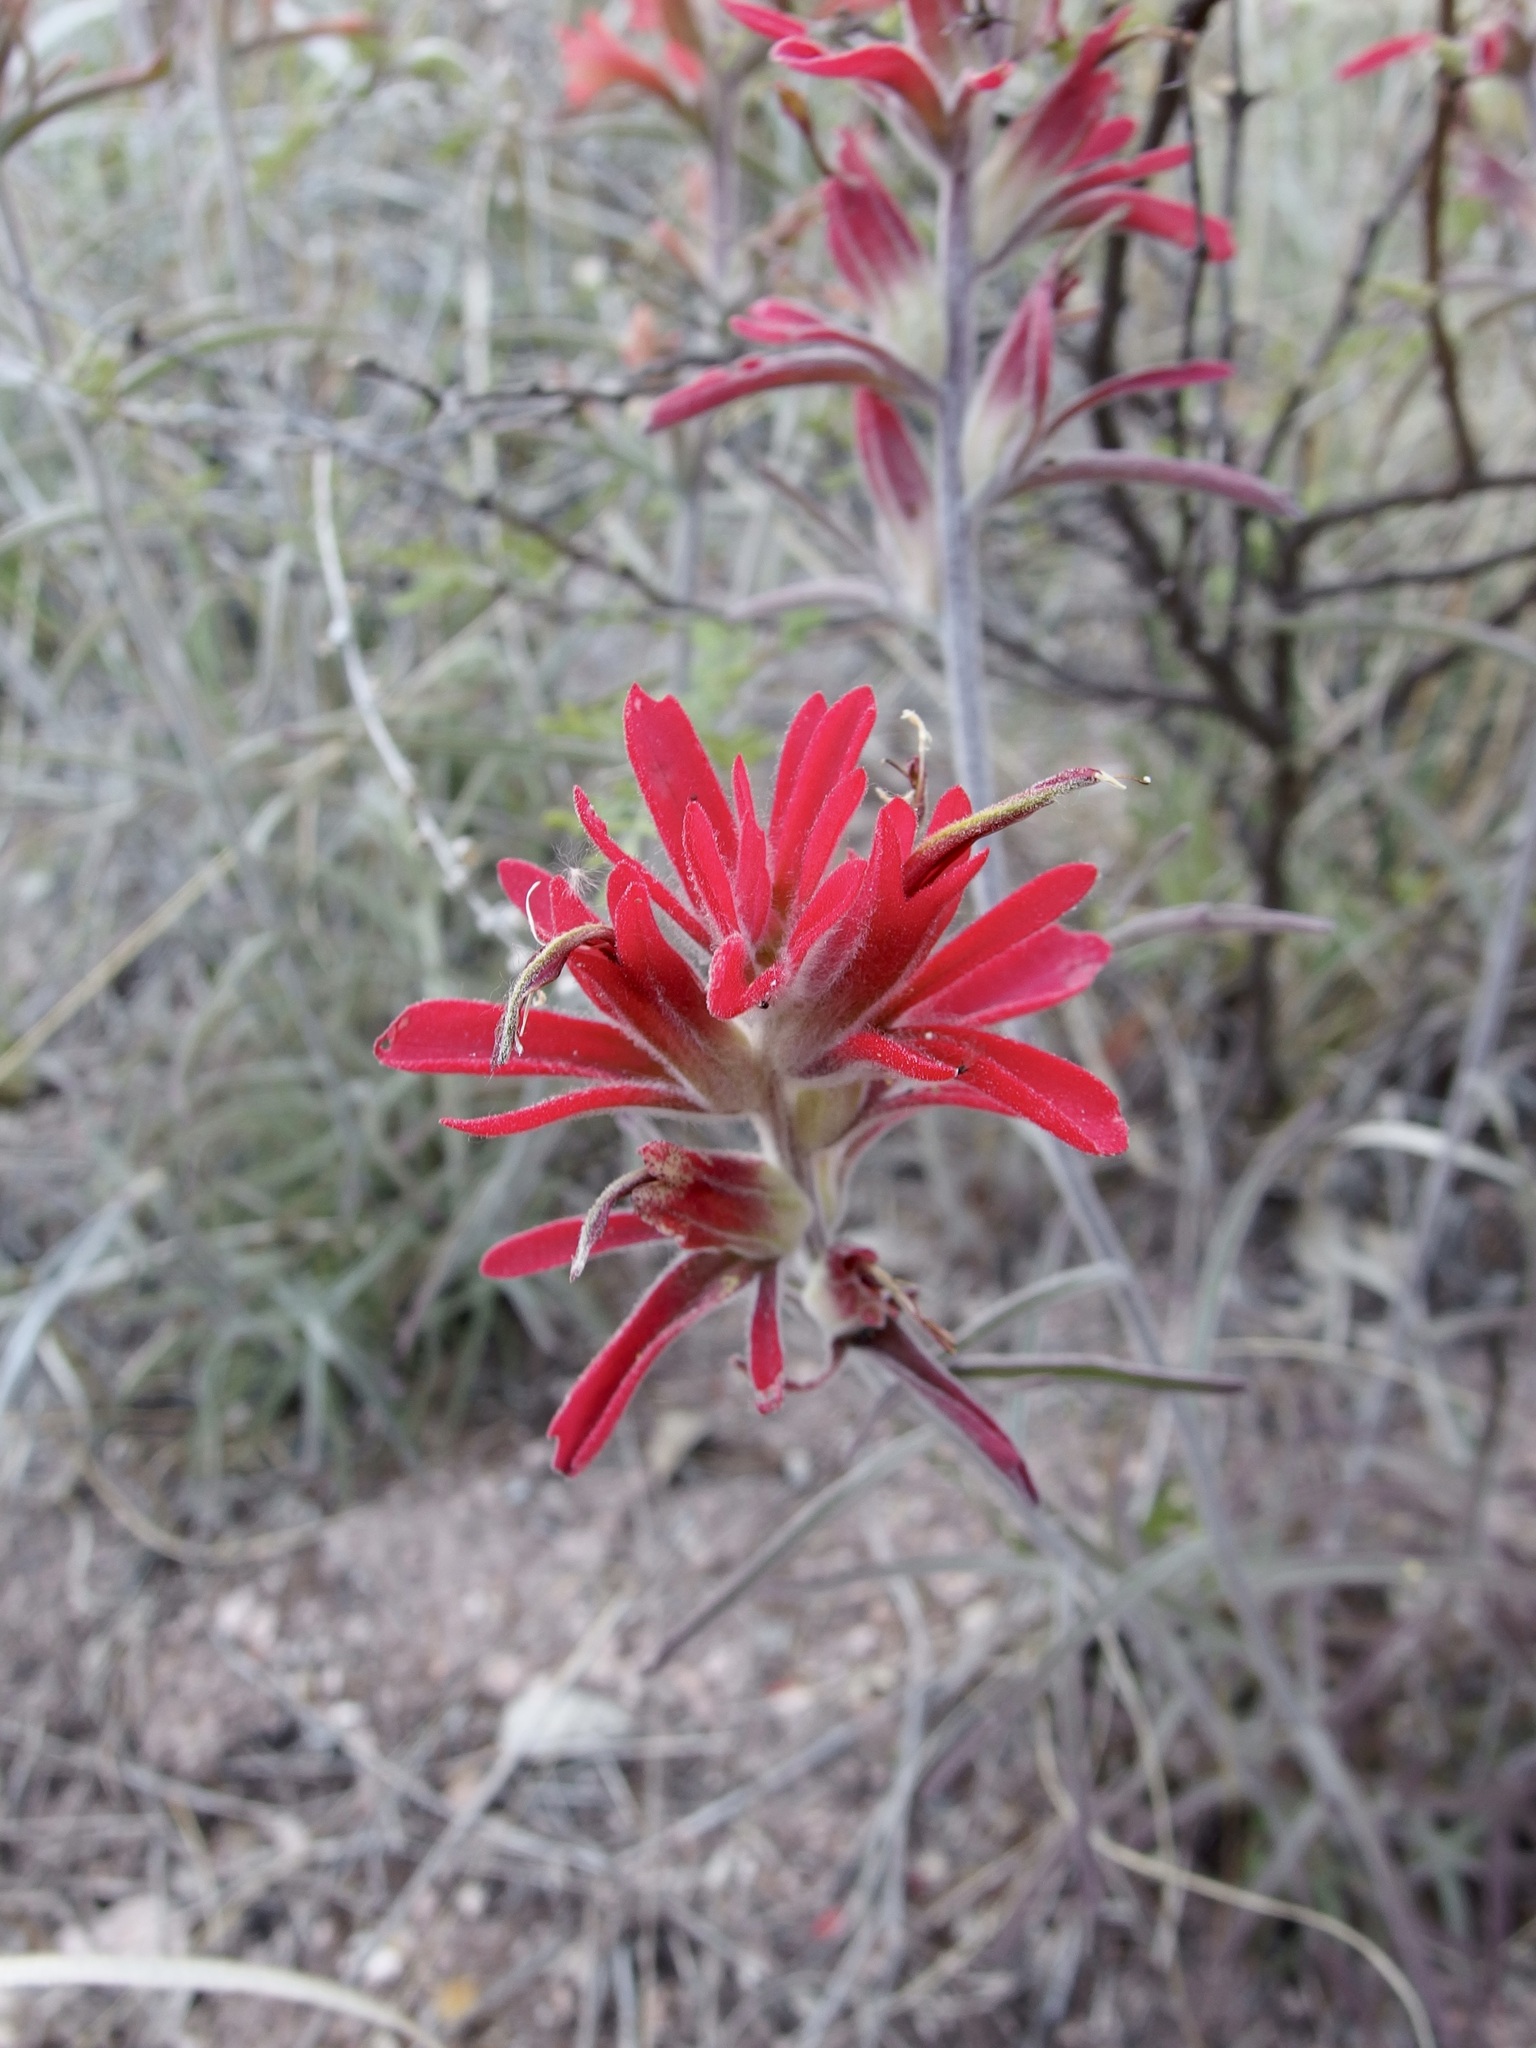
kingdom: Plantae
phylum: Tracheophyta
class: Magnoliopsida
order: Lamiales
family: Orobanchaceae
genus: Castilleja
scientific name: Castilleja tomentosa
